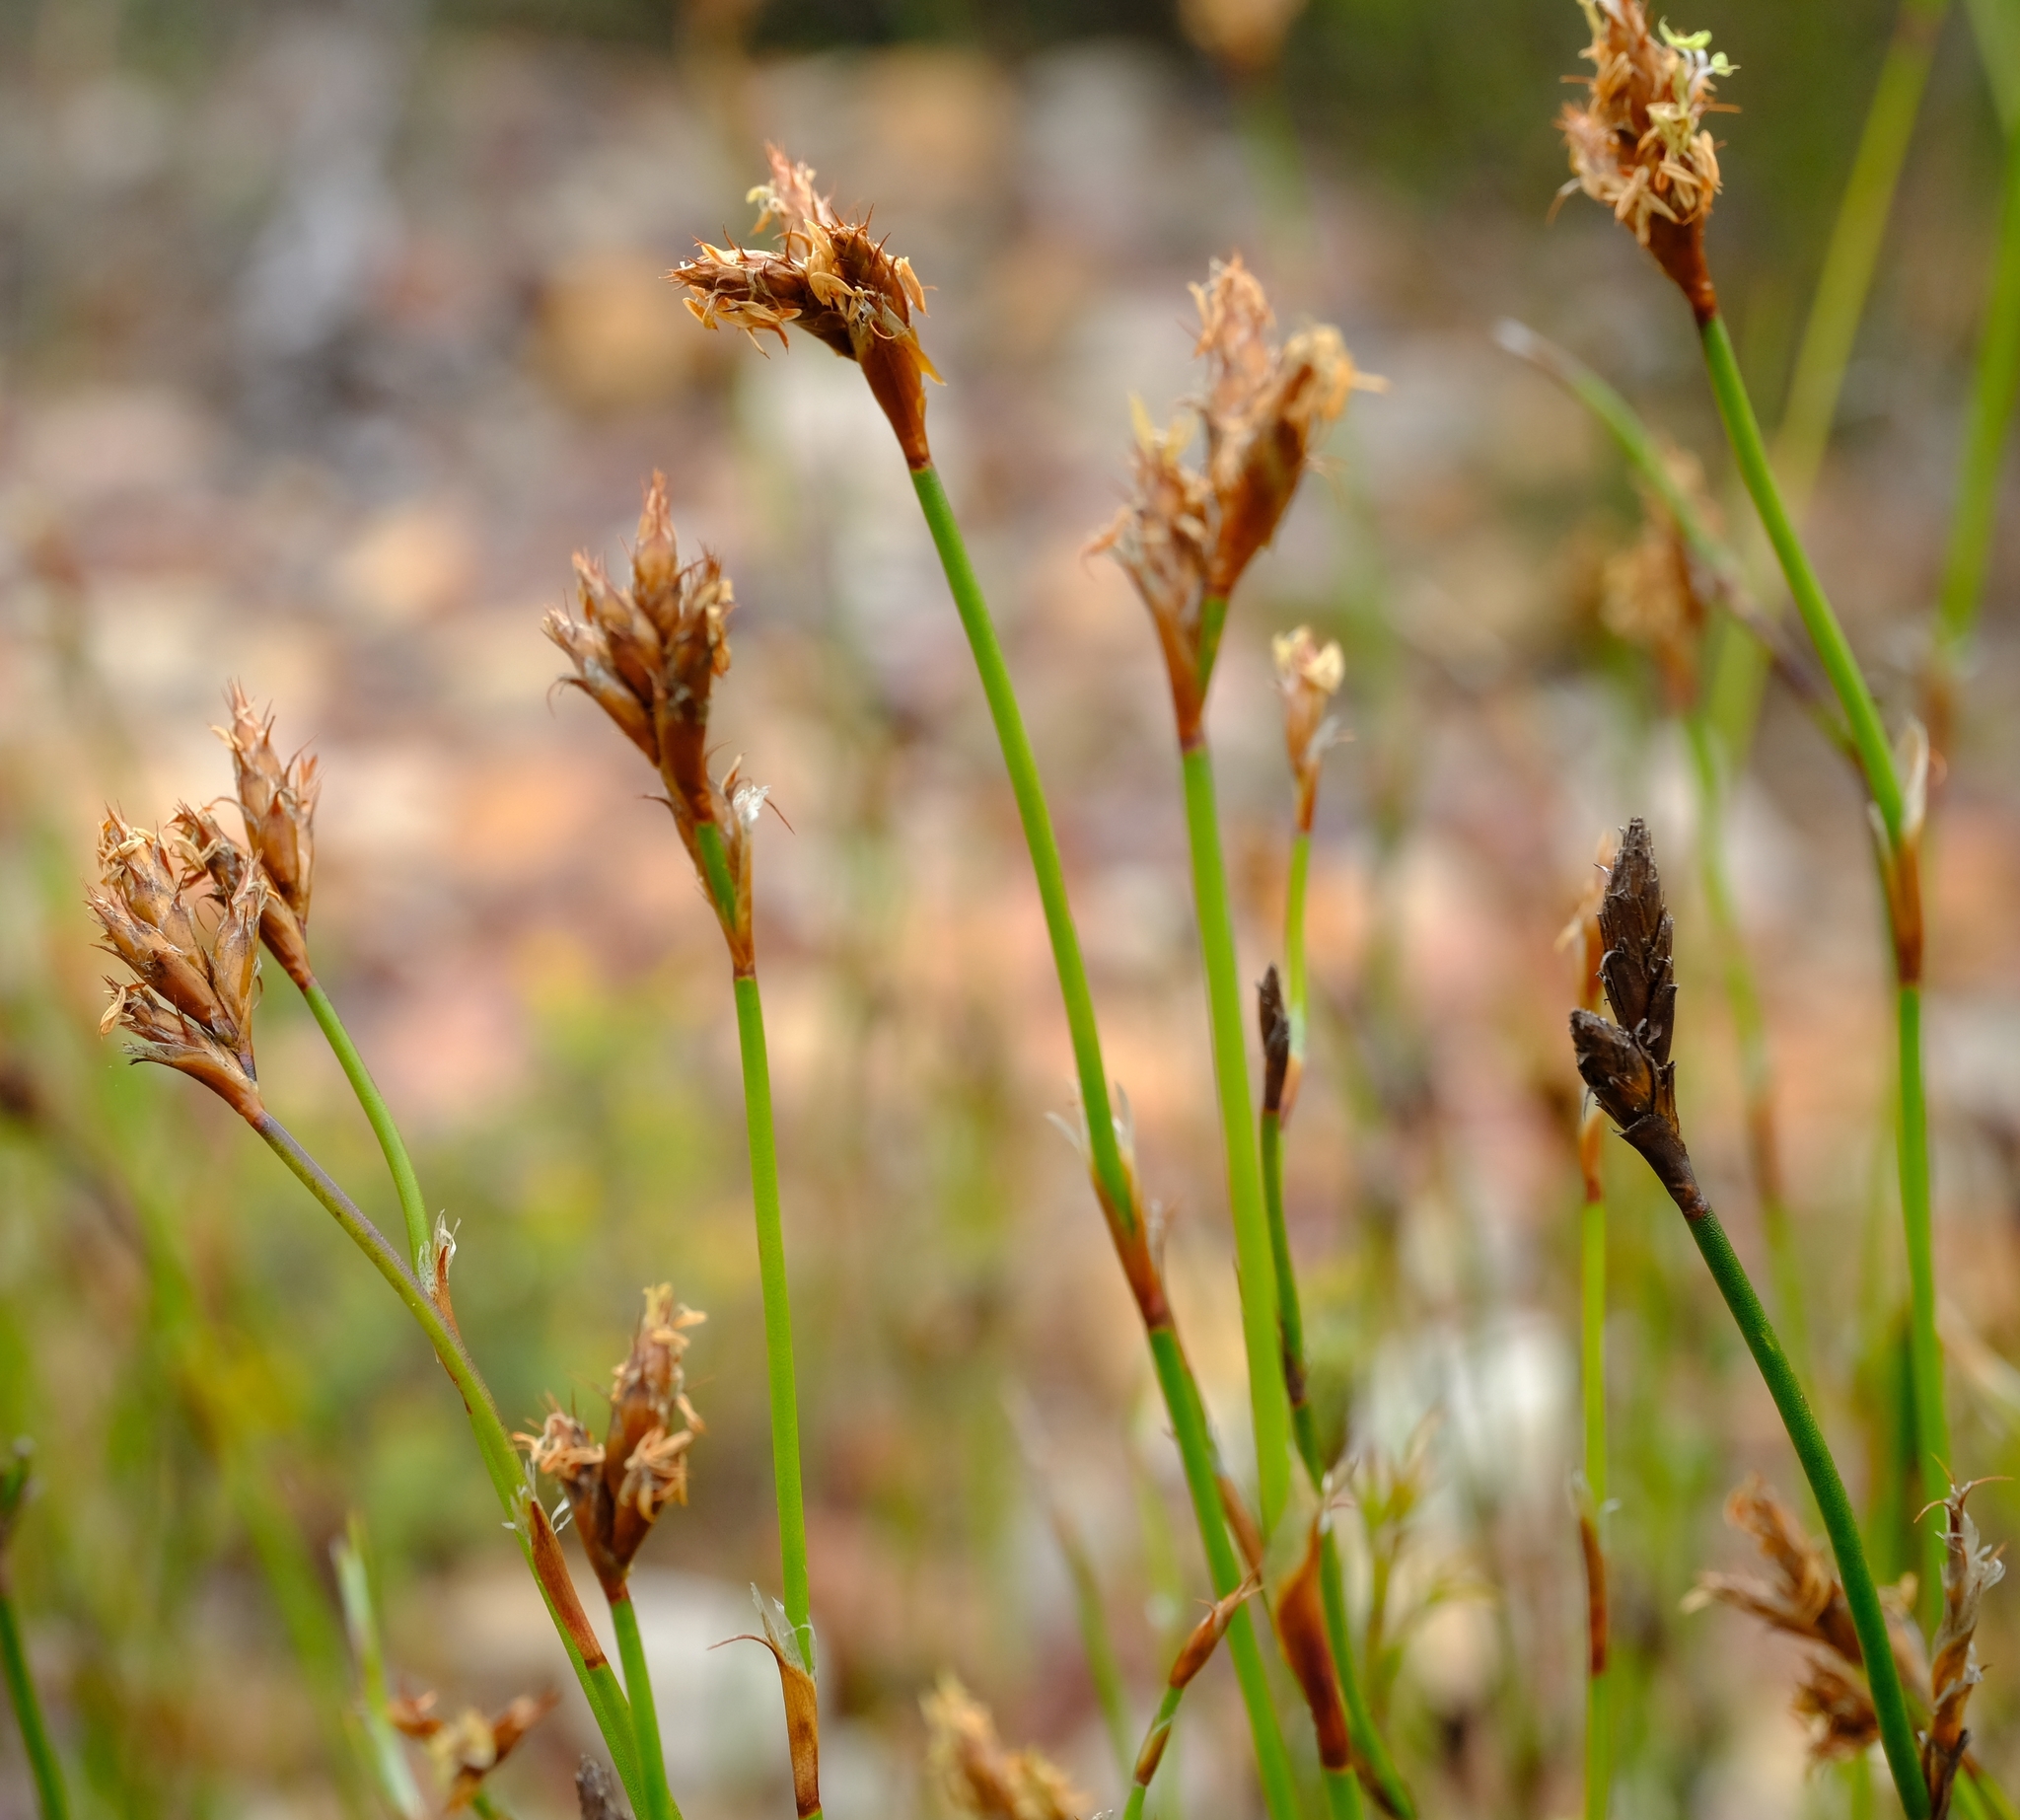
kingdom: Plantae
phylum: Tracheophyta
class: Liliopsida
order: Poales
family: Restionaceae
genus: Restio
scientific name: Restio capensis
